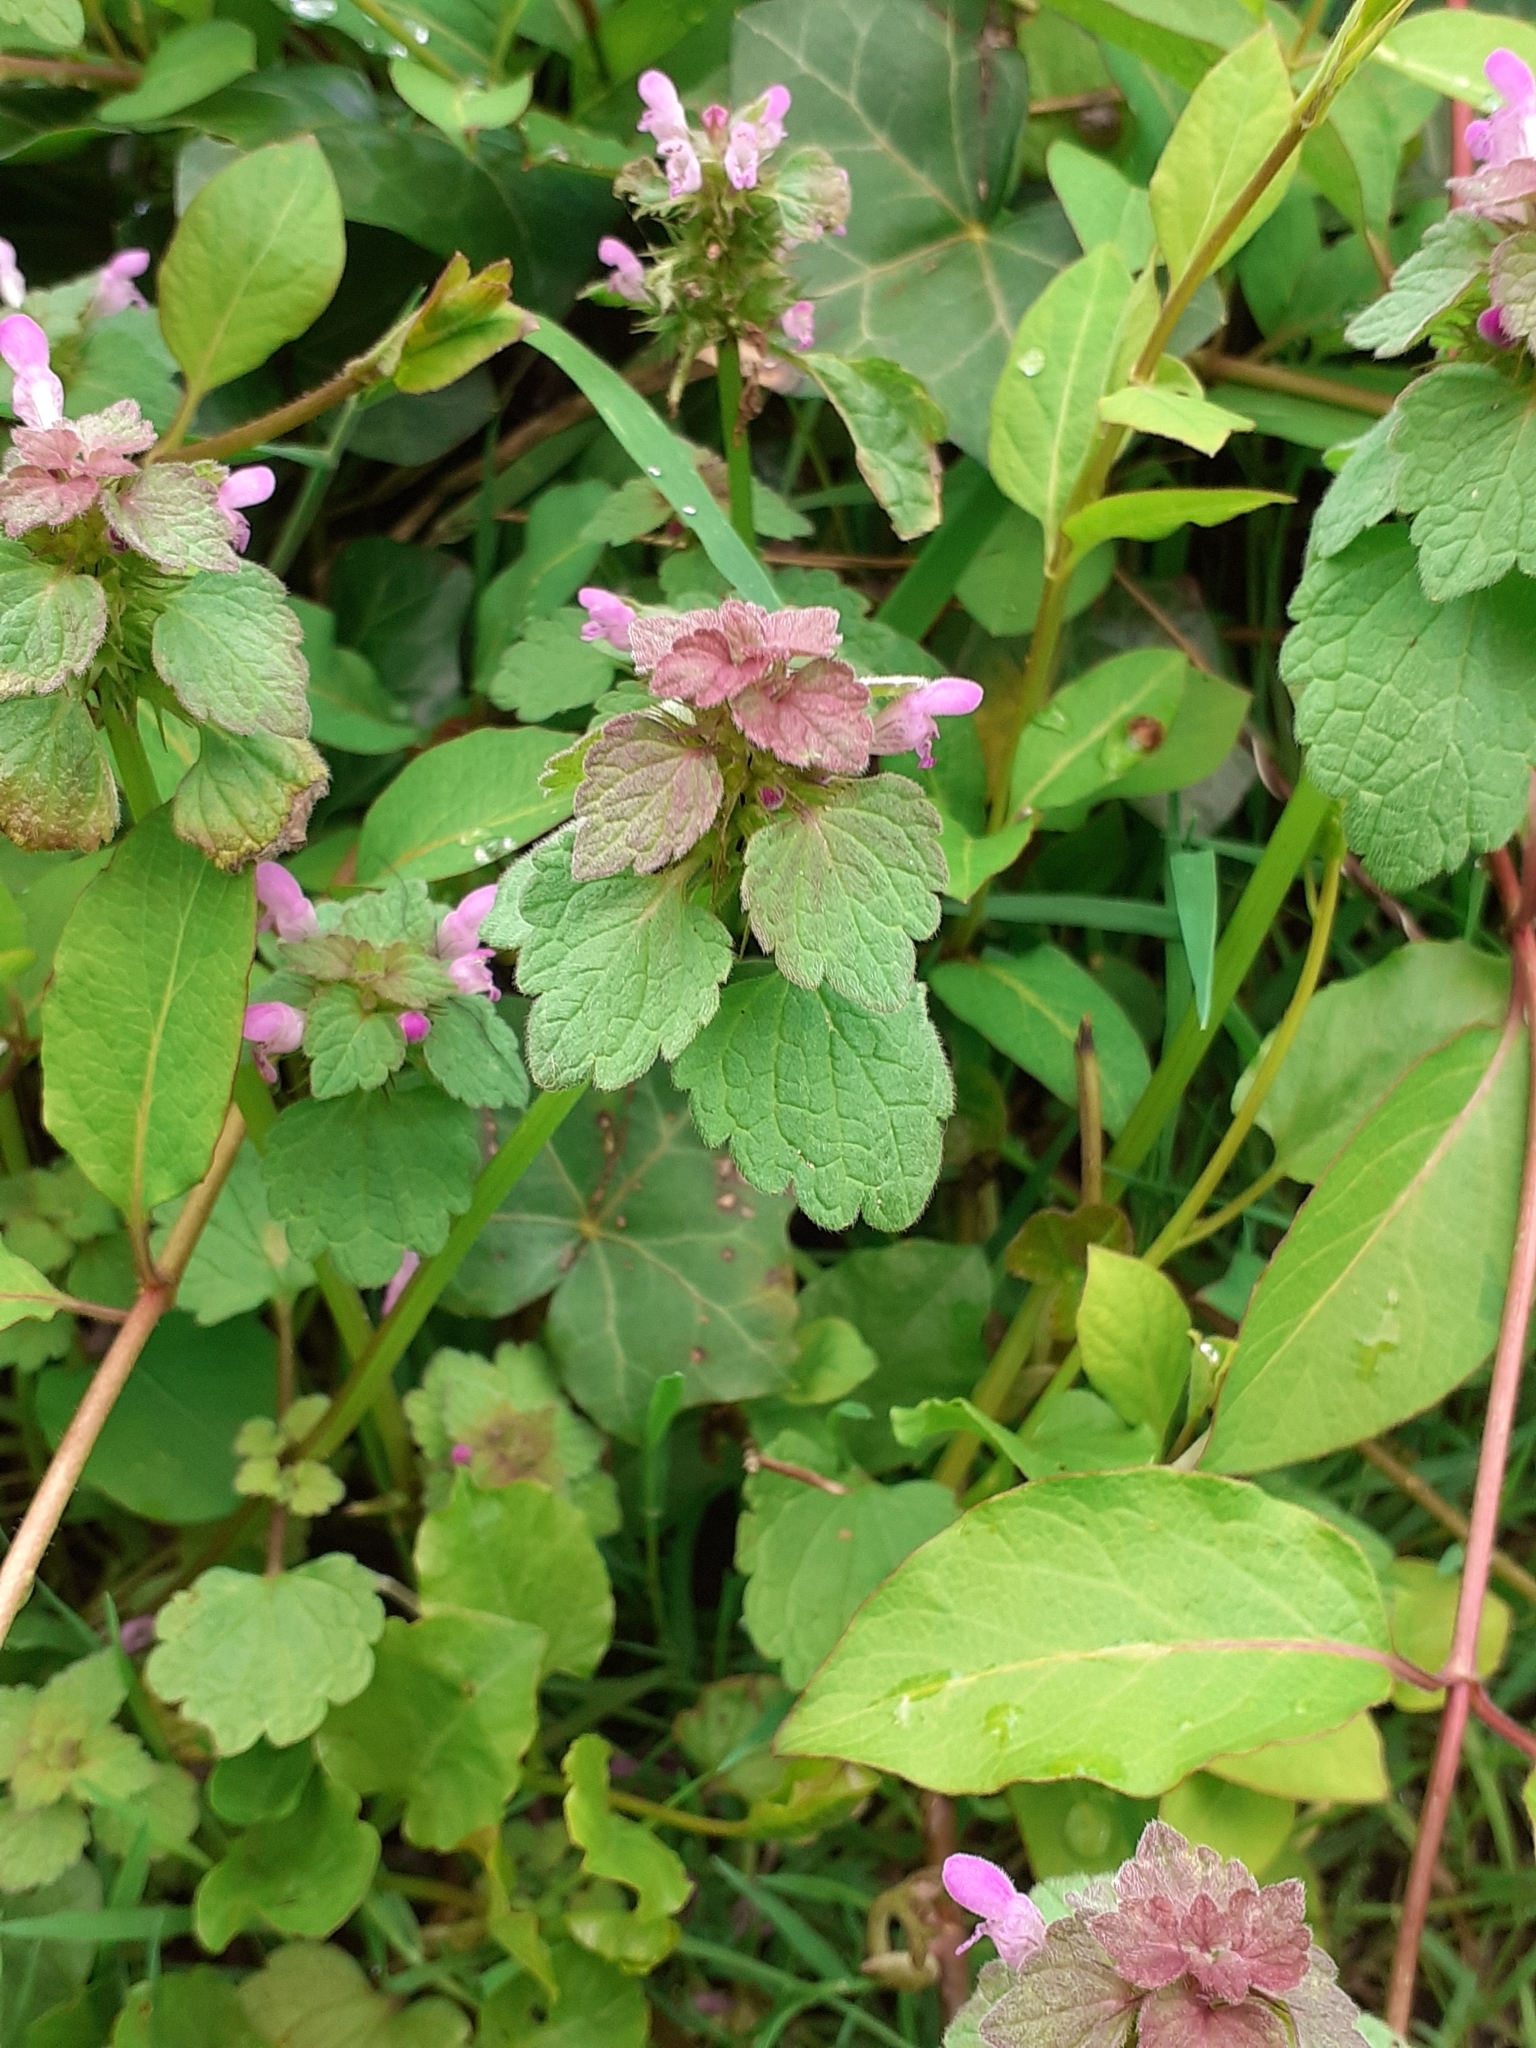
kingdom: Plantae
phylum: Tracheophyta
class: Magnoliopsida
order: Lamiales
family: Lamiaceae
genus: Lamium
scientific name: Lamium purpureum
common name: Red dead-nettle
